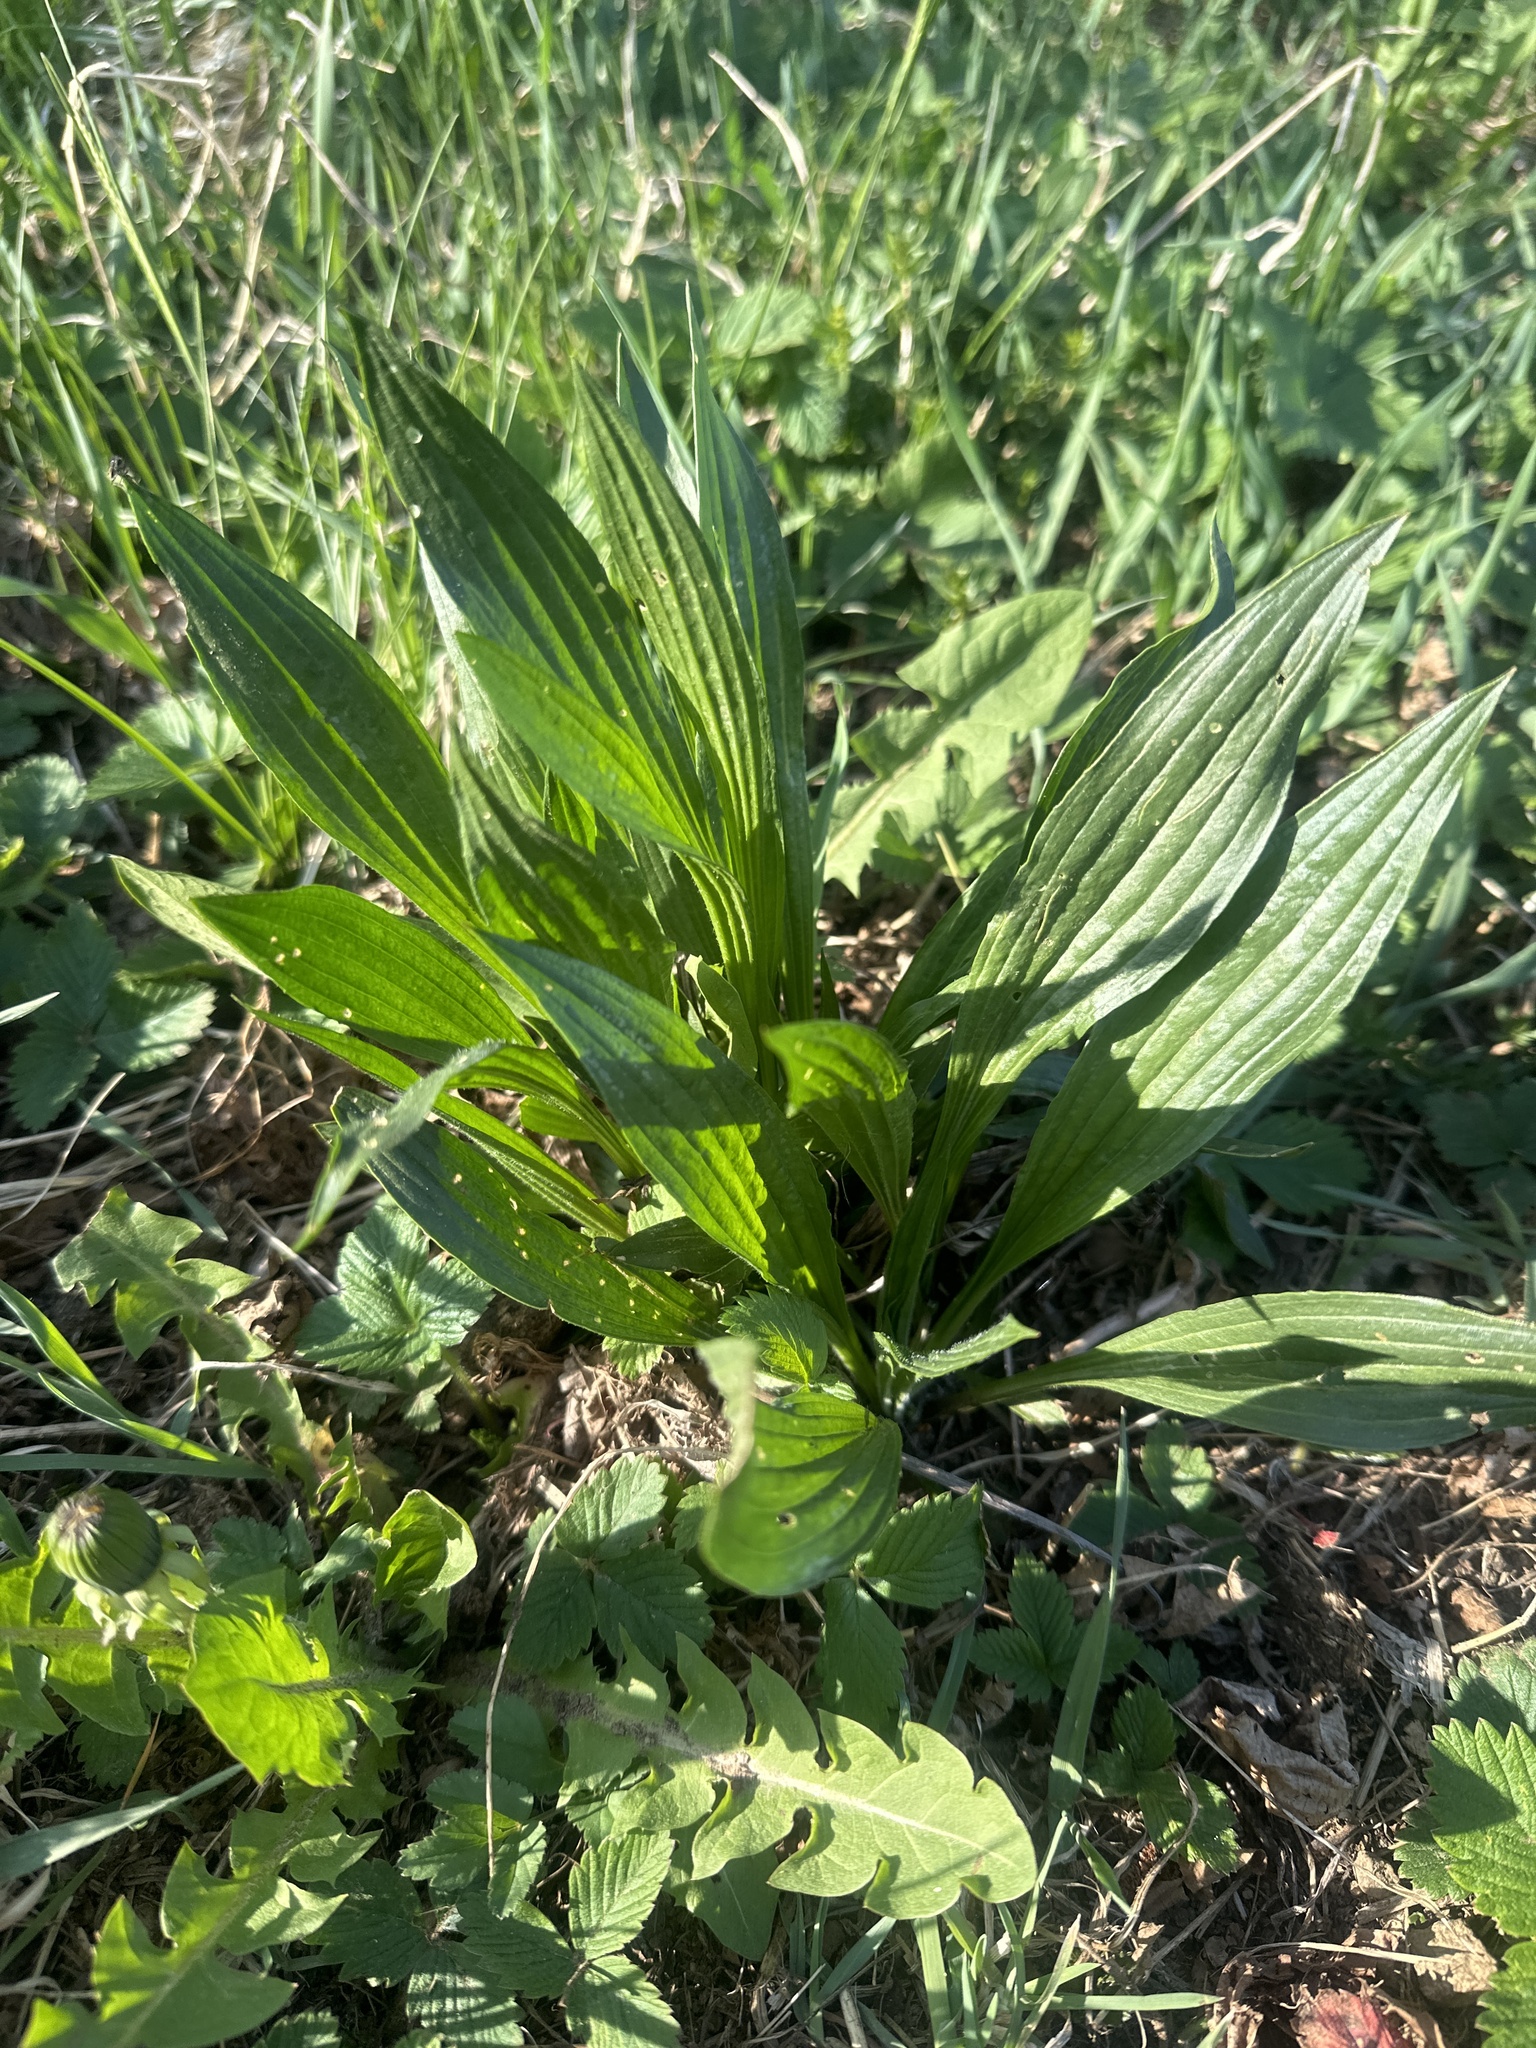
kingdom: Plantae
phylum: Tracheophyta
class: Magnoliopsida
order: Lamiales
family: Plantaginaceae
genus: Plantago
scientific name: Plantago lanceolata
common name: Ribwort plantain
